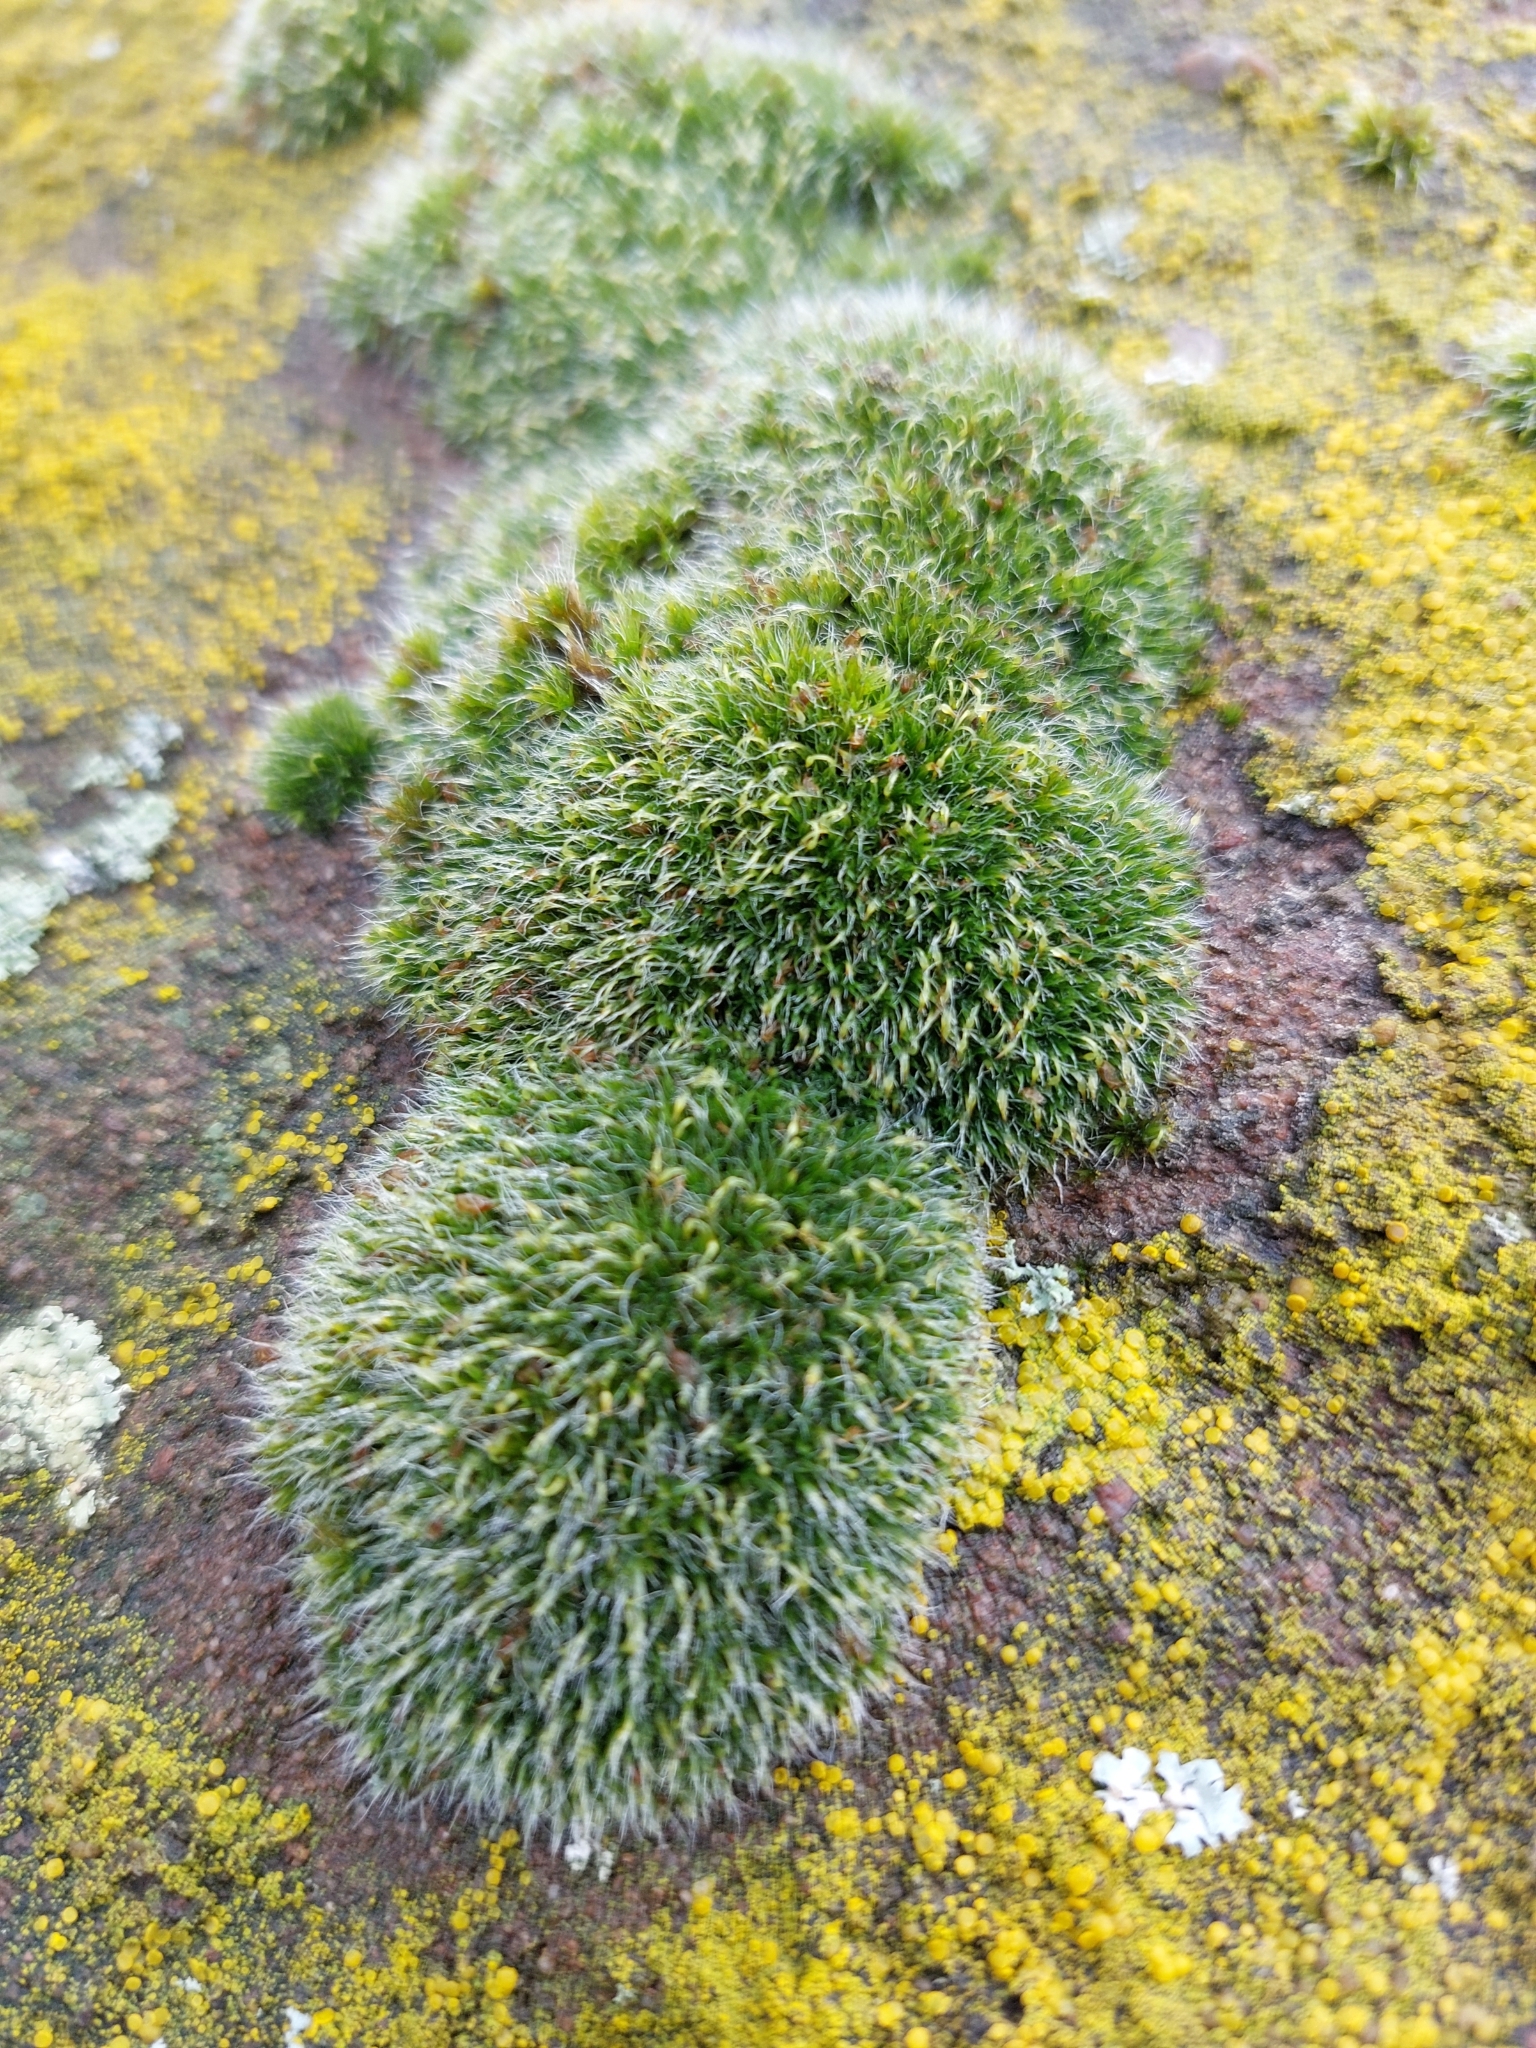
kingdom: Plantae
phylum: Bryophyta
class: Bryopsida
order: Grimmiales
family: Grimmiaceae
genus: Grimmia
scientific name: Grimmia pulvinata
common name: Grey-cushioned grimmia
